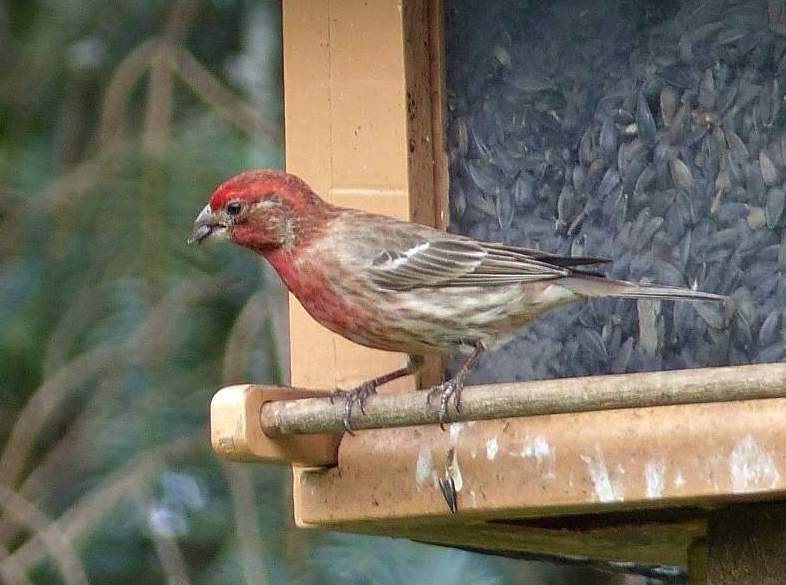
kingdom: Animalia
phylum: Chordata
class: Aves
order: Passeriformes
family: Fringillidae
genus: Haemorhous
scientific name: Haemorhous mexicanus
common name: House finch
